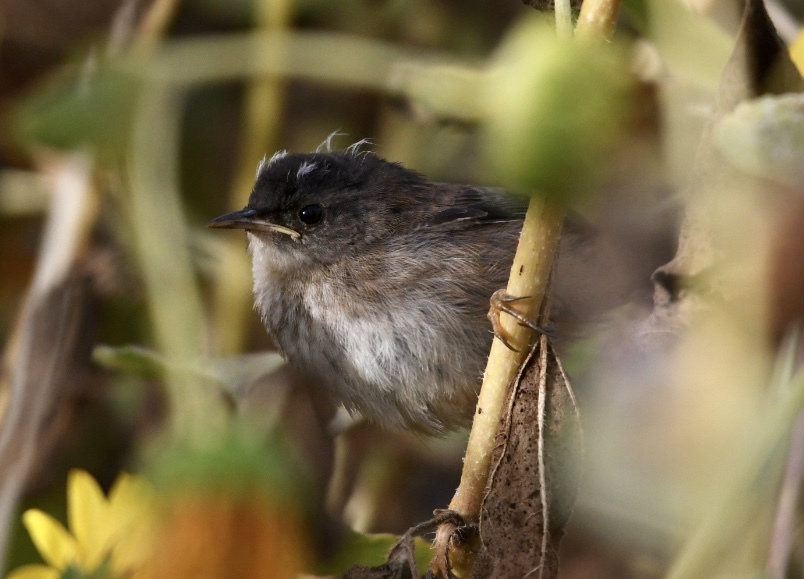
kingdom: Animalia
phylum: Chordata
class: Aves
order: Passeriformes
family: Troglodytidae
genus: Cistothorus
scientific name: Cistothorus palustris
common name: Marsh wren
